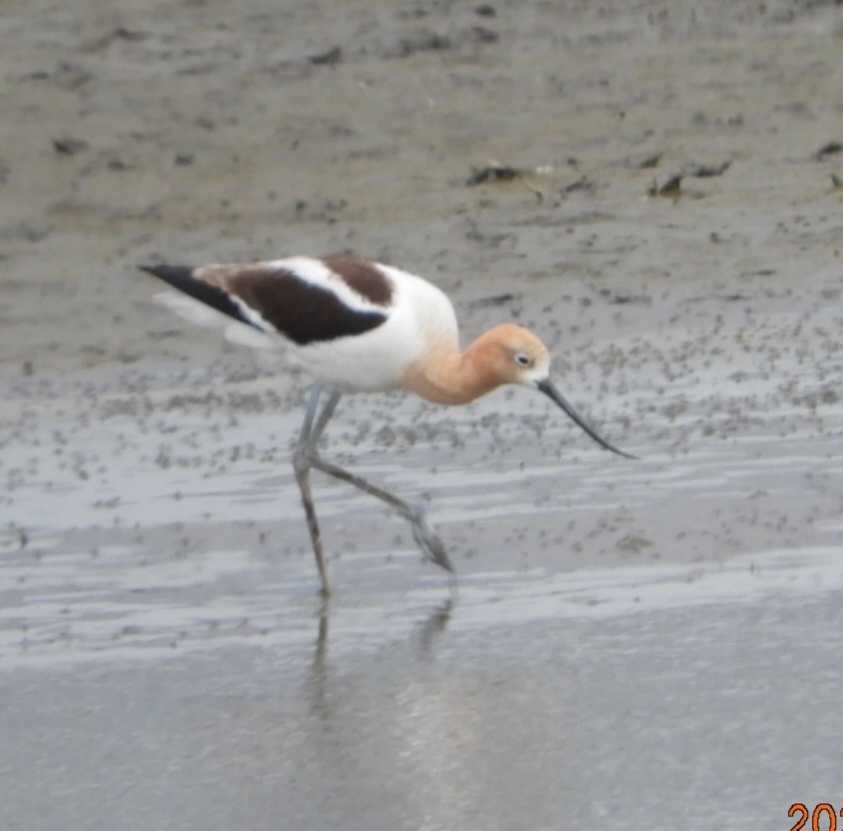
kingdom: Animalia
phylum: Chordata
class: Aves
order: Charadriiformes
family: Recurvirostridae
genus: Recurvirostra
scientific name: Recurvirostra americana
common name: American avocet
